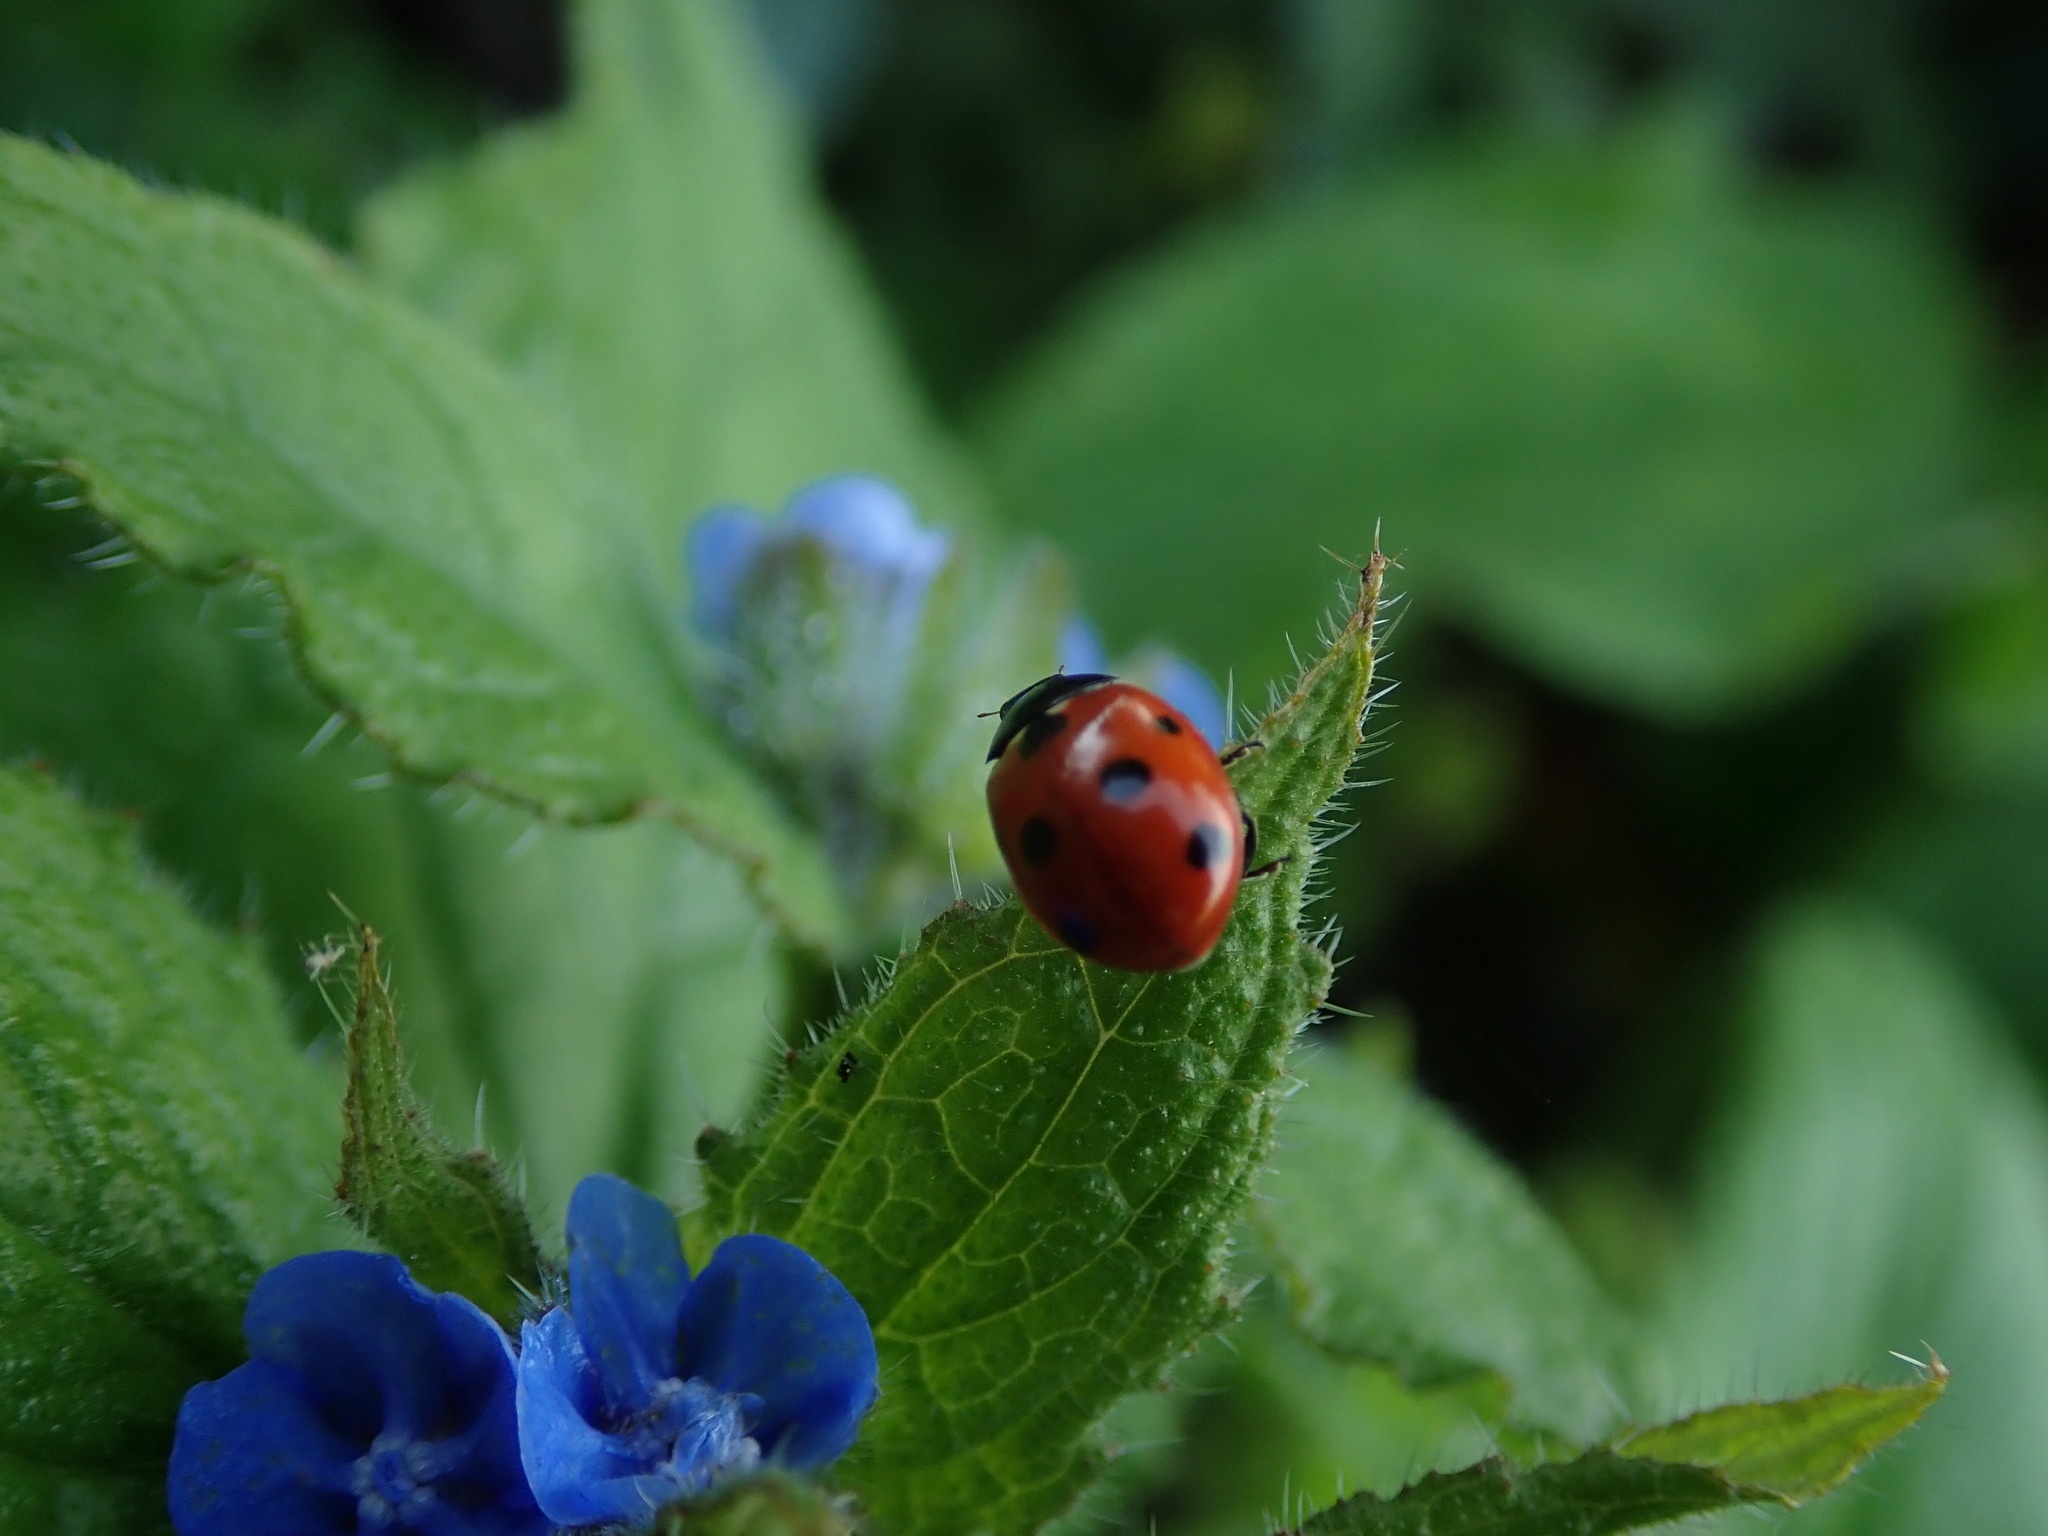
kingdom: Animalia
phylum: Arthropoda
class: Insecta
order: Coleoptera
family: Coccinellidae
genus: Coccinella
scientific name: Coccinella septempunctata
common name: Sevenspotted lady beetle
